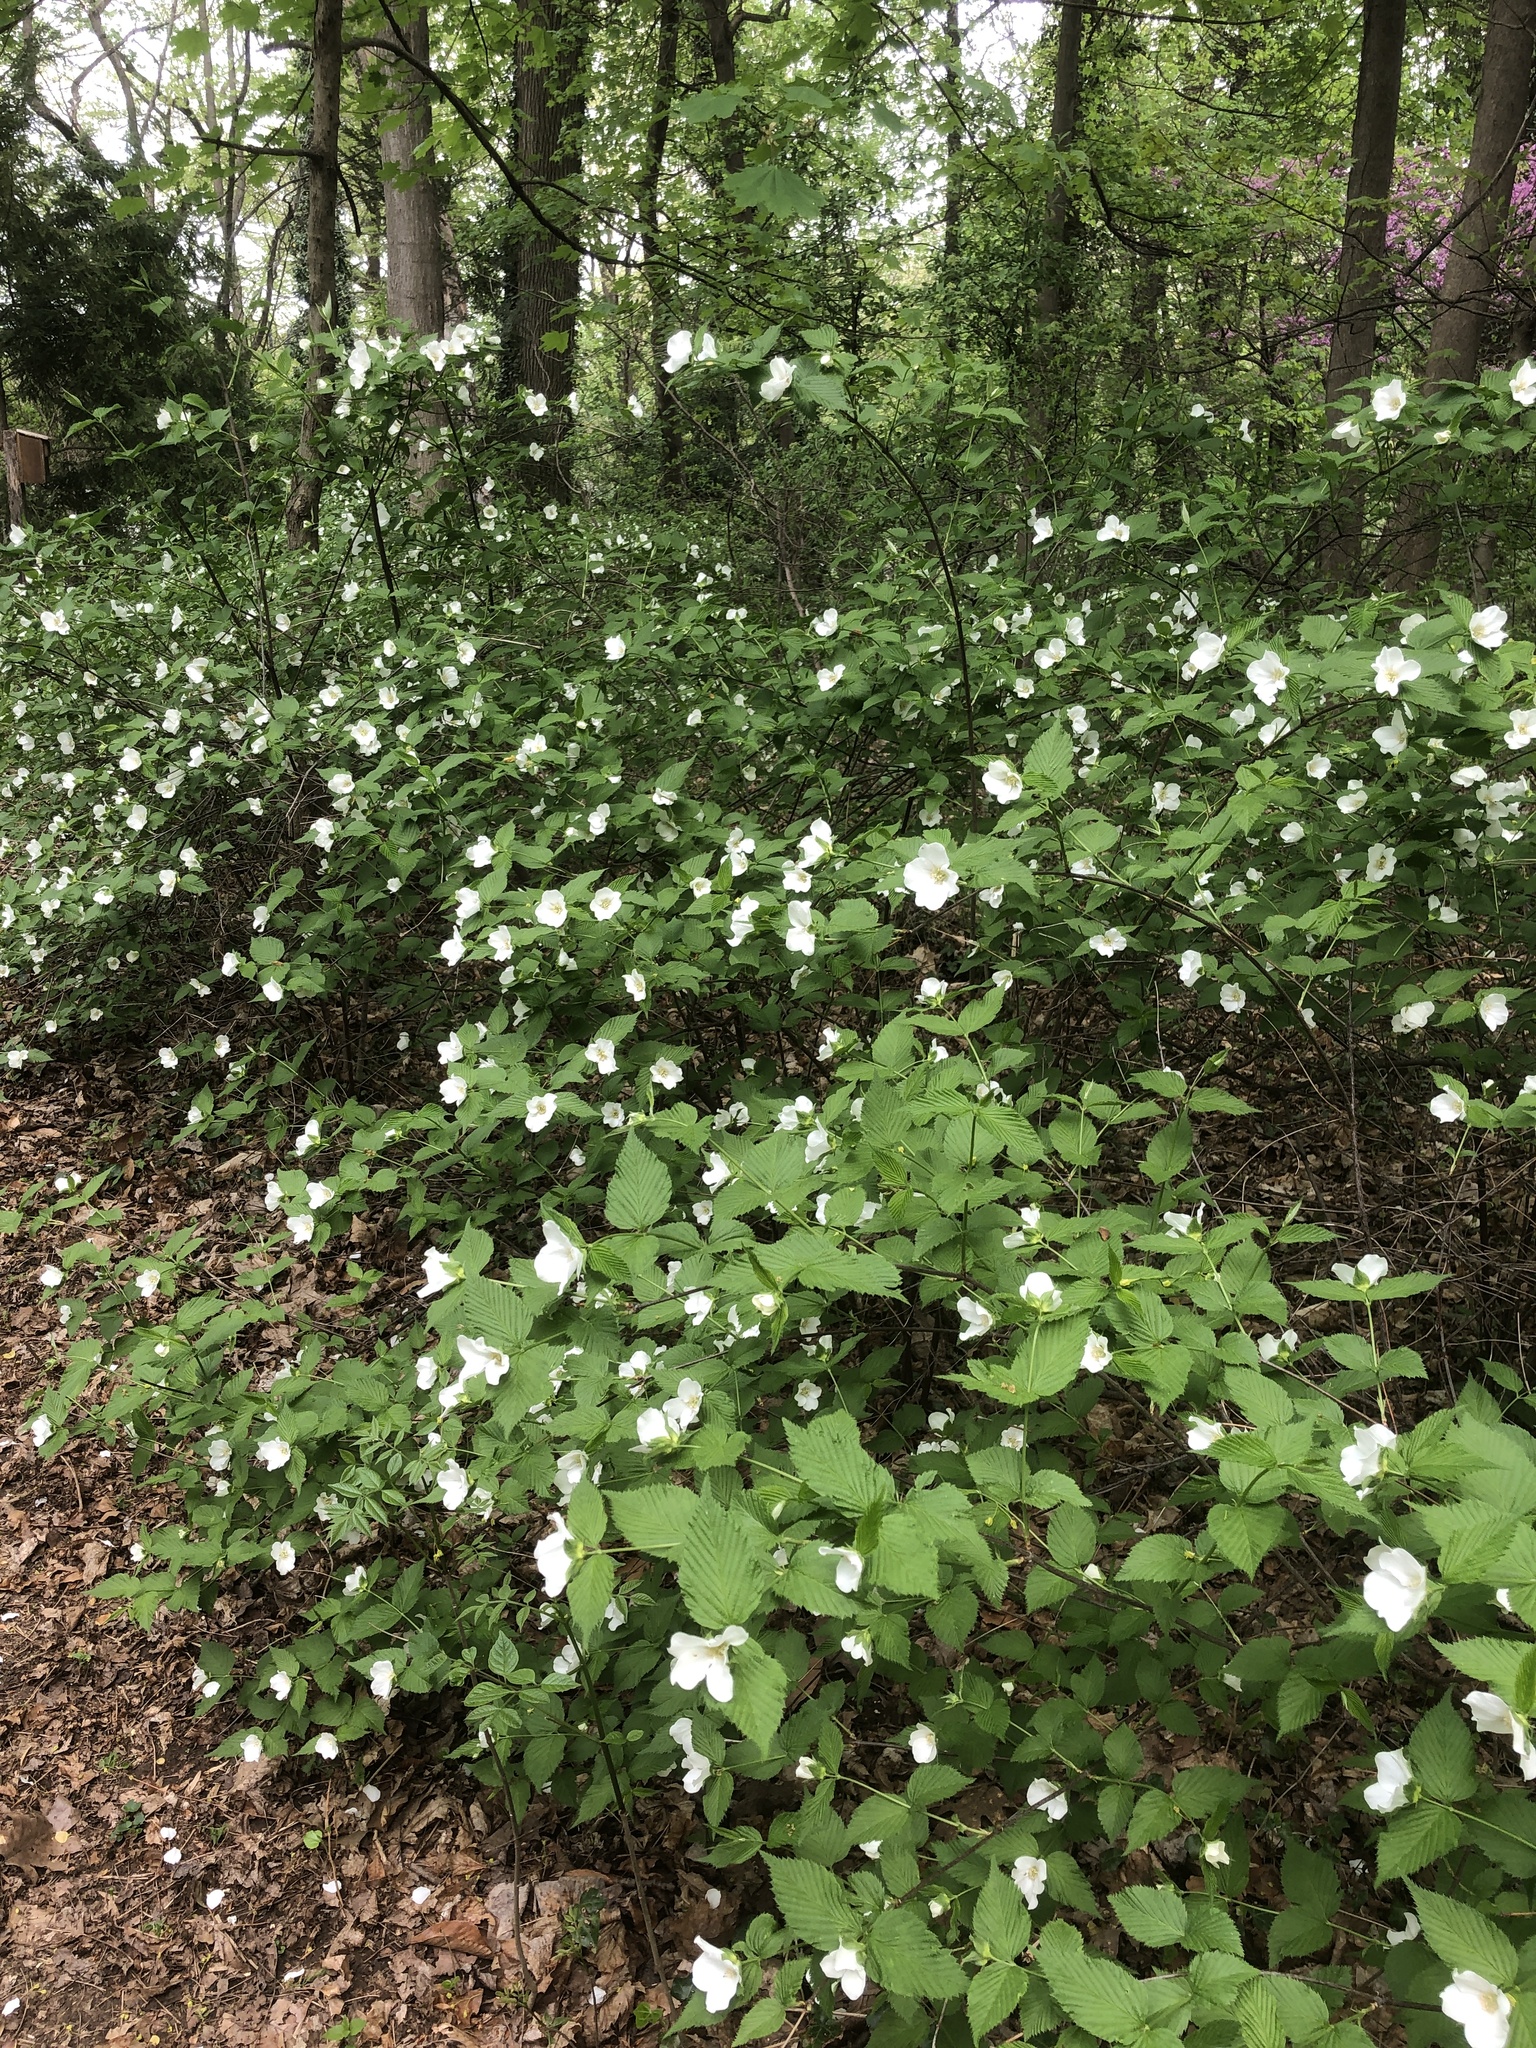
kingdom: Plantae
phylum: Tracheophyta
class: Magnoliopsida
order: Rosales
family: Rosaceae
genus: Rhodotypos
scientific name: Rhodotypos scandens
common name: Jetbead
